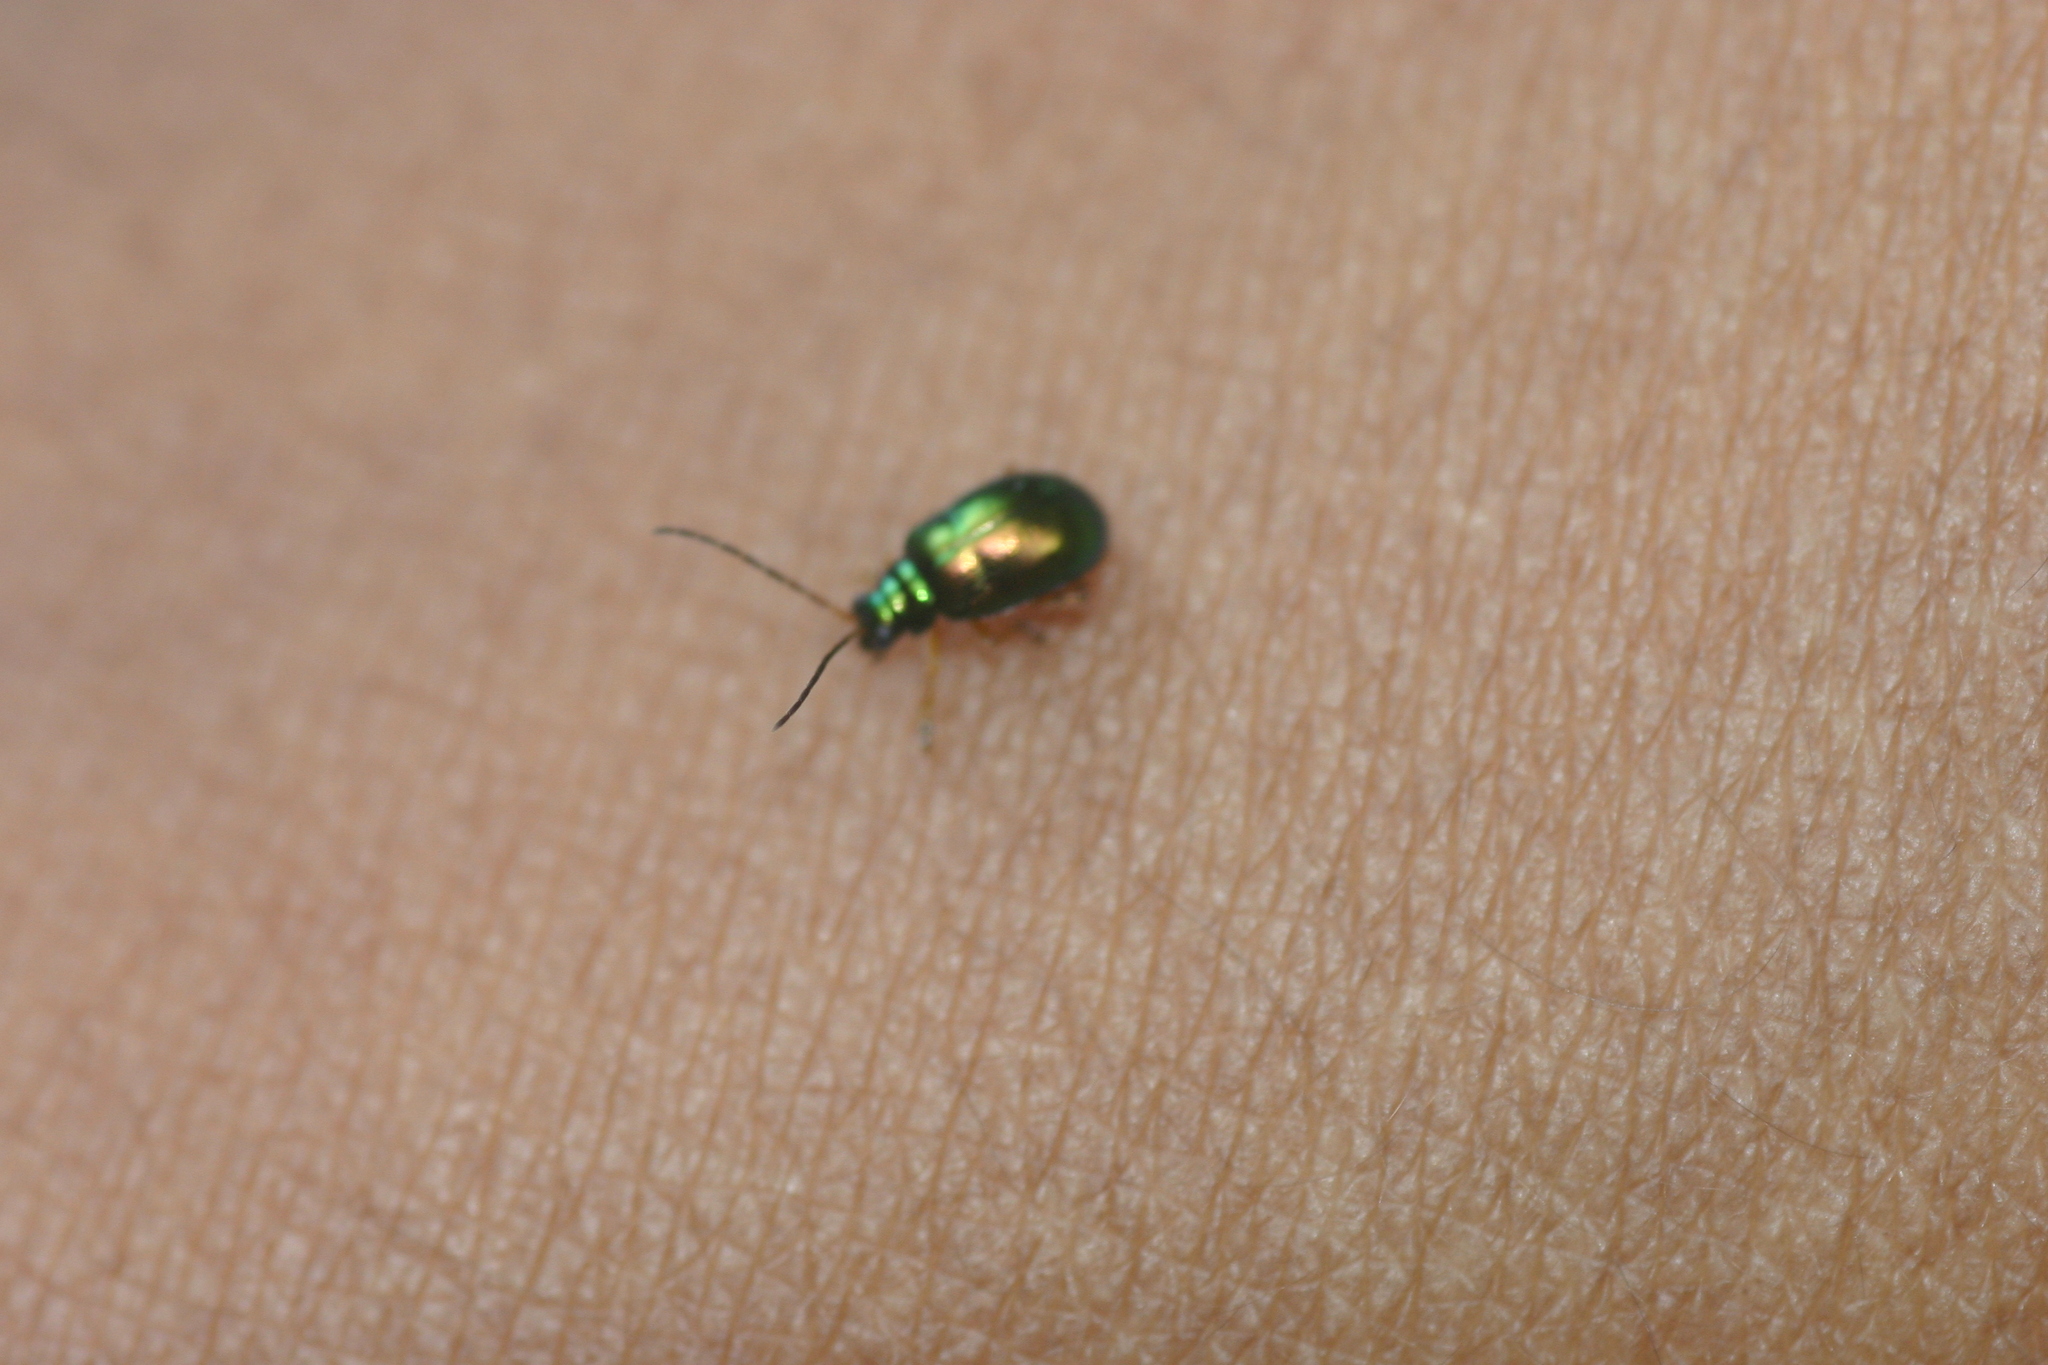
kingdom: Animalia
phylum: Arthropoda
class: Insecta
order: Coleoptera
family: Chrysomelidae
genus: Mimastracella
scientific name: Mimastracella
